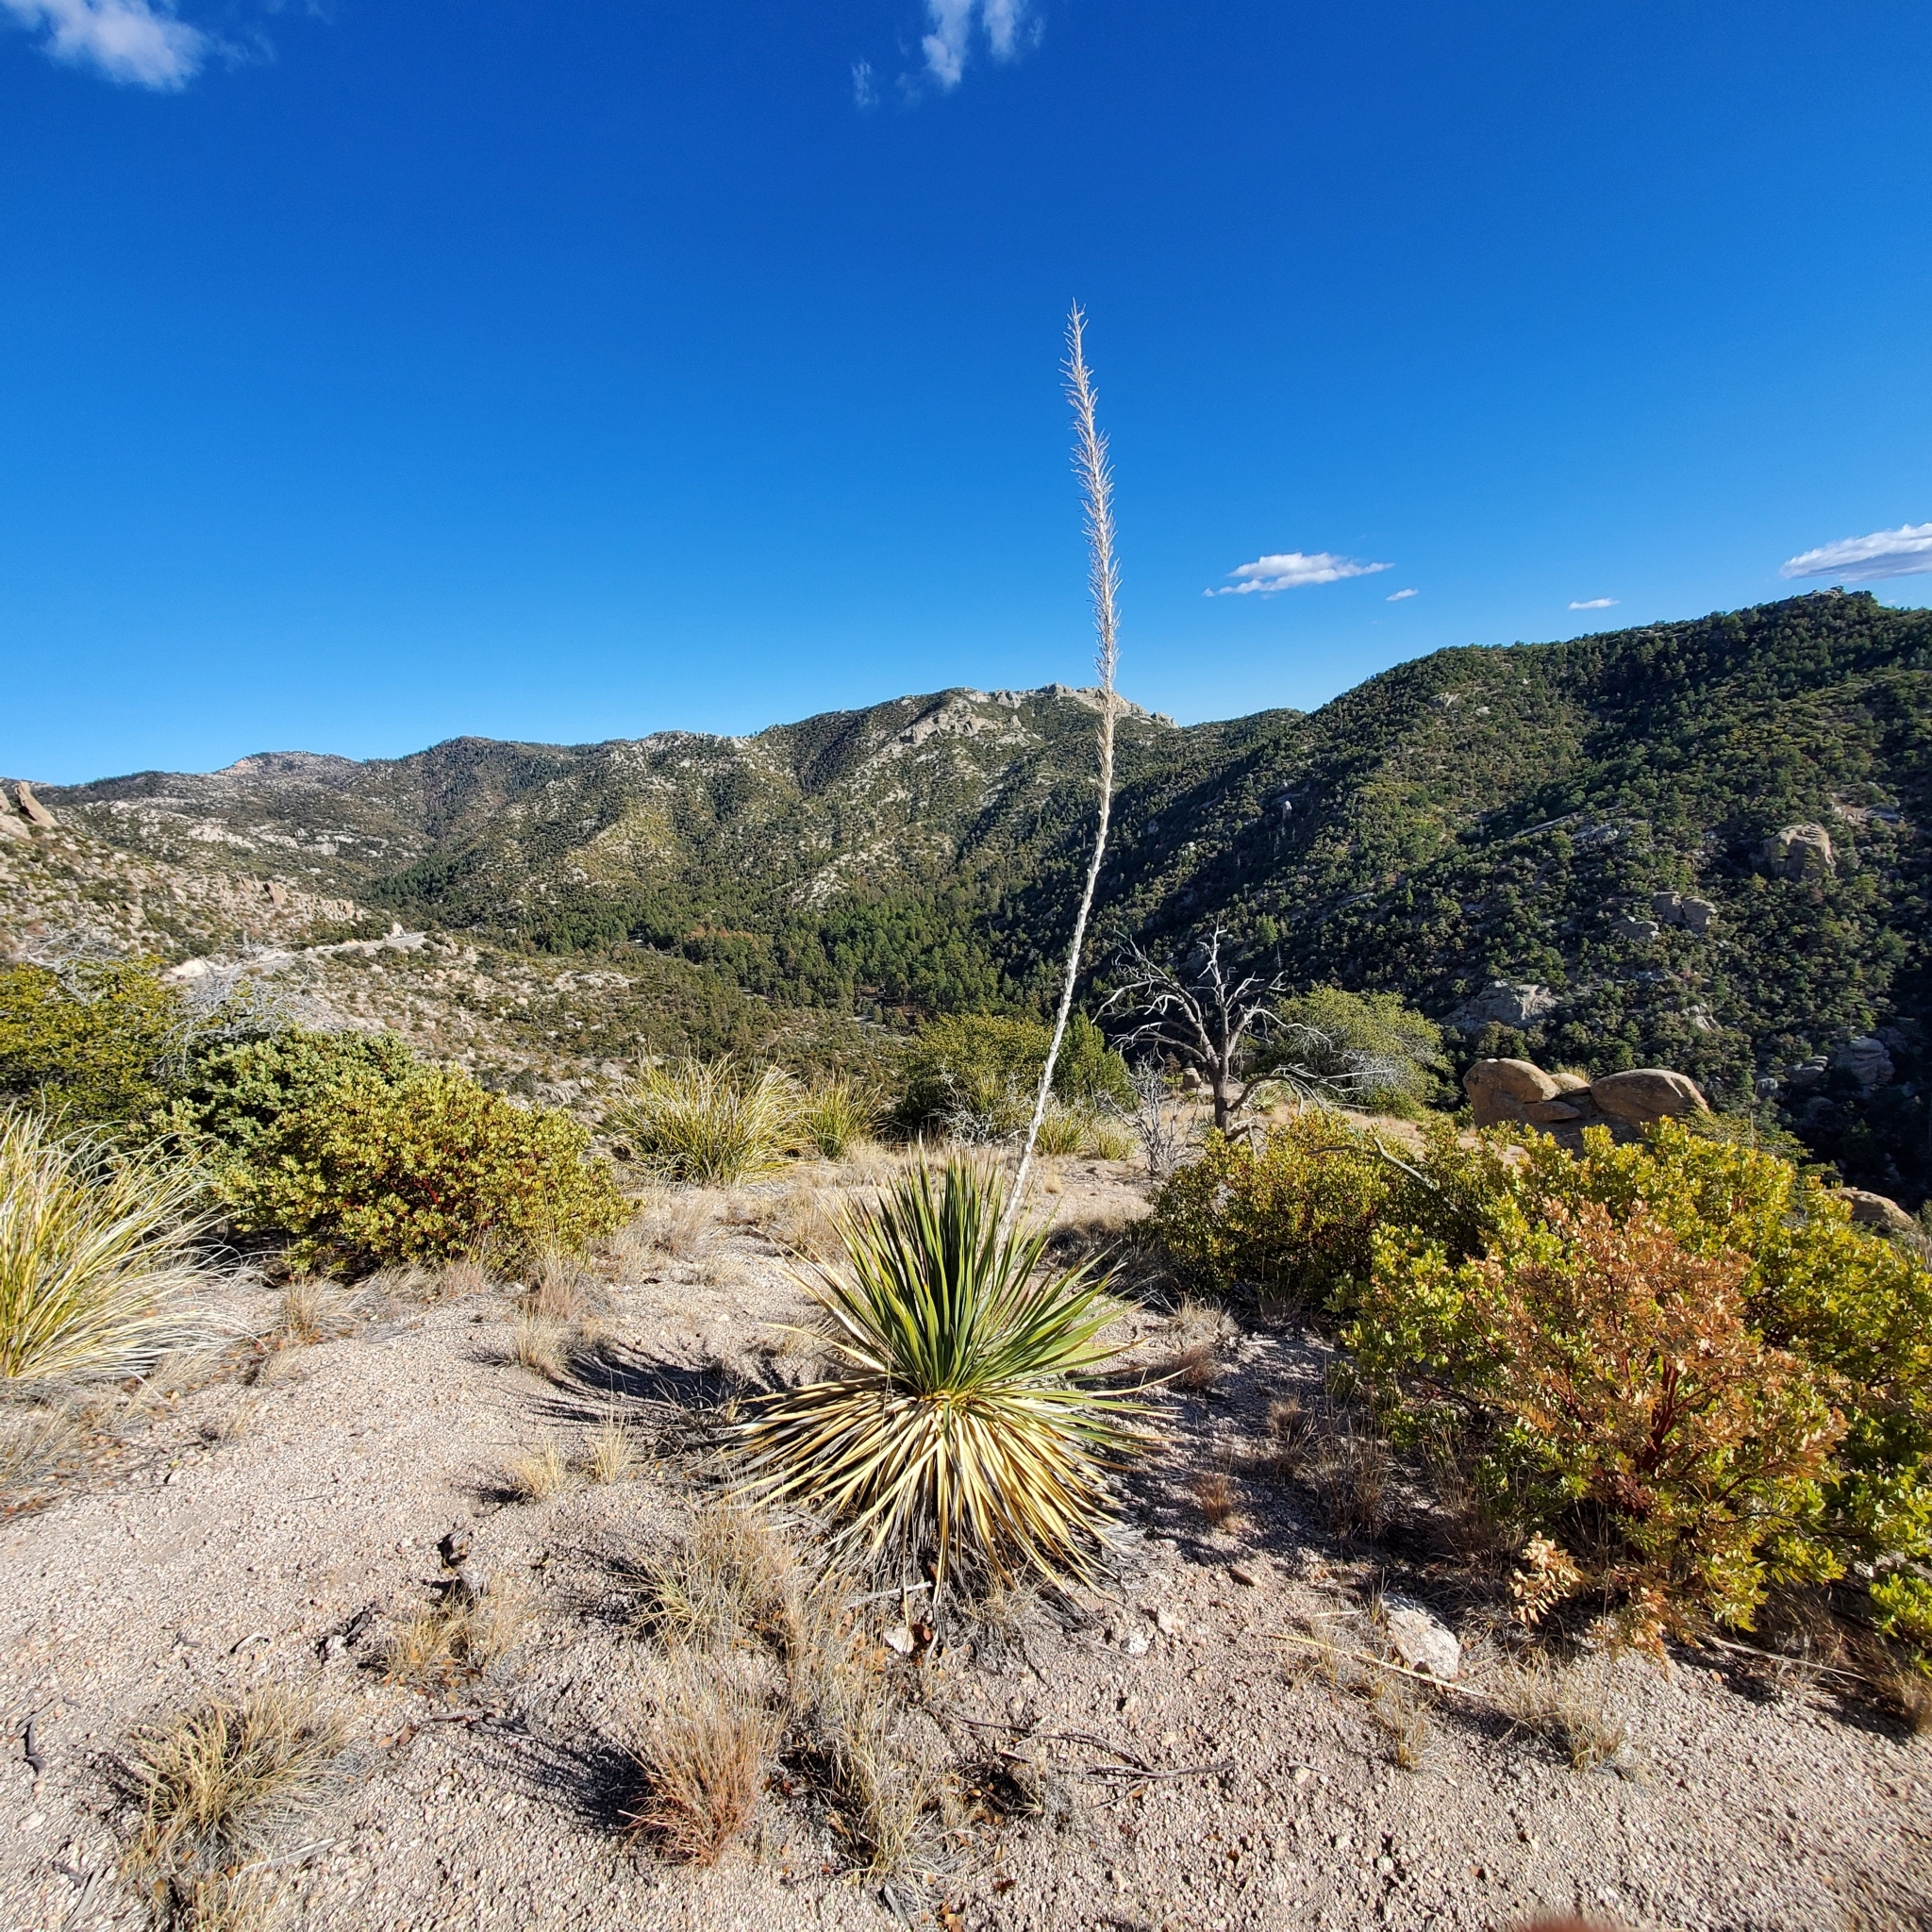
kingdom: Plantae
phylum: Tracheophyta
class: Liliopsida
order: Asparagales
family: Asparagaceae
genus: Dasylirion
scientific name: Dasylirion wheeleri
